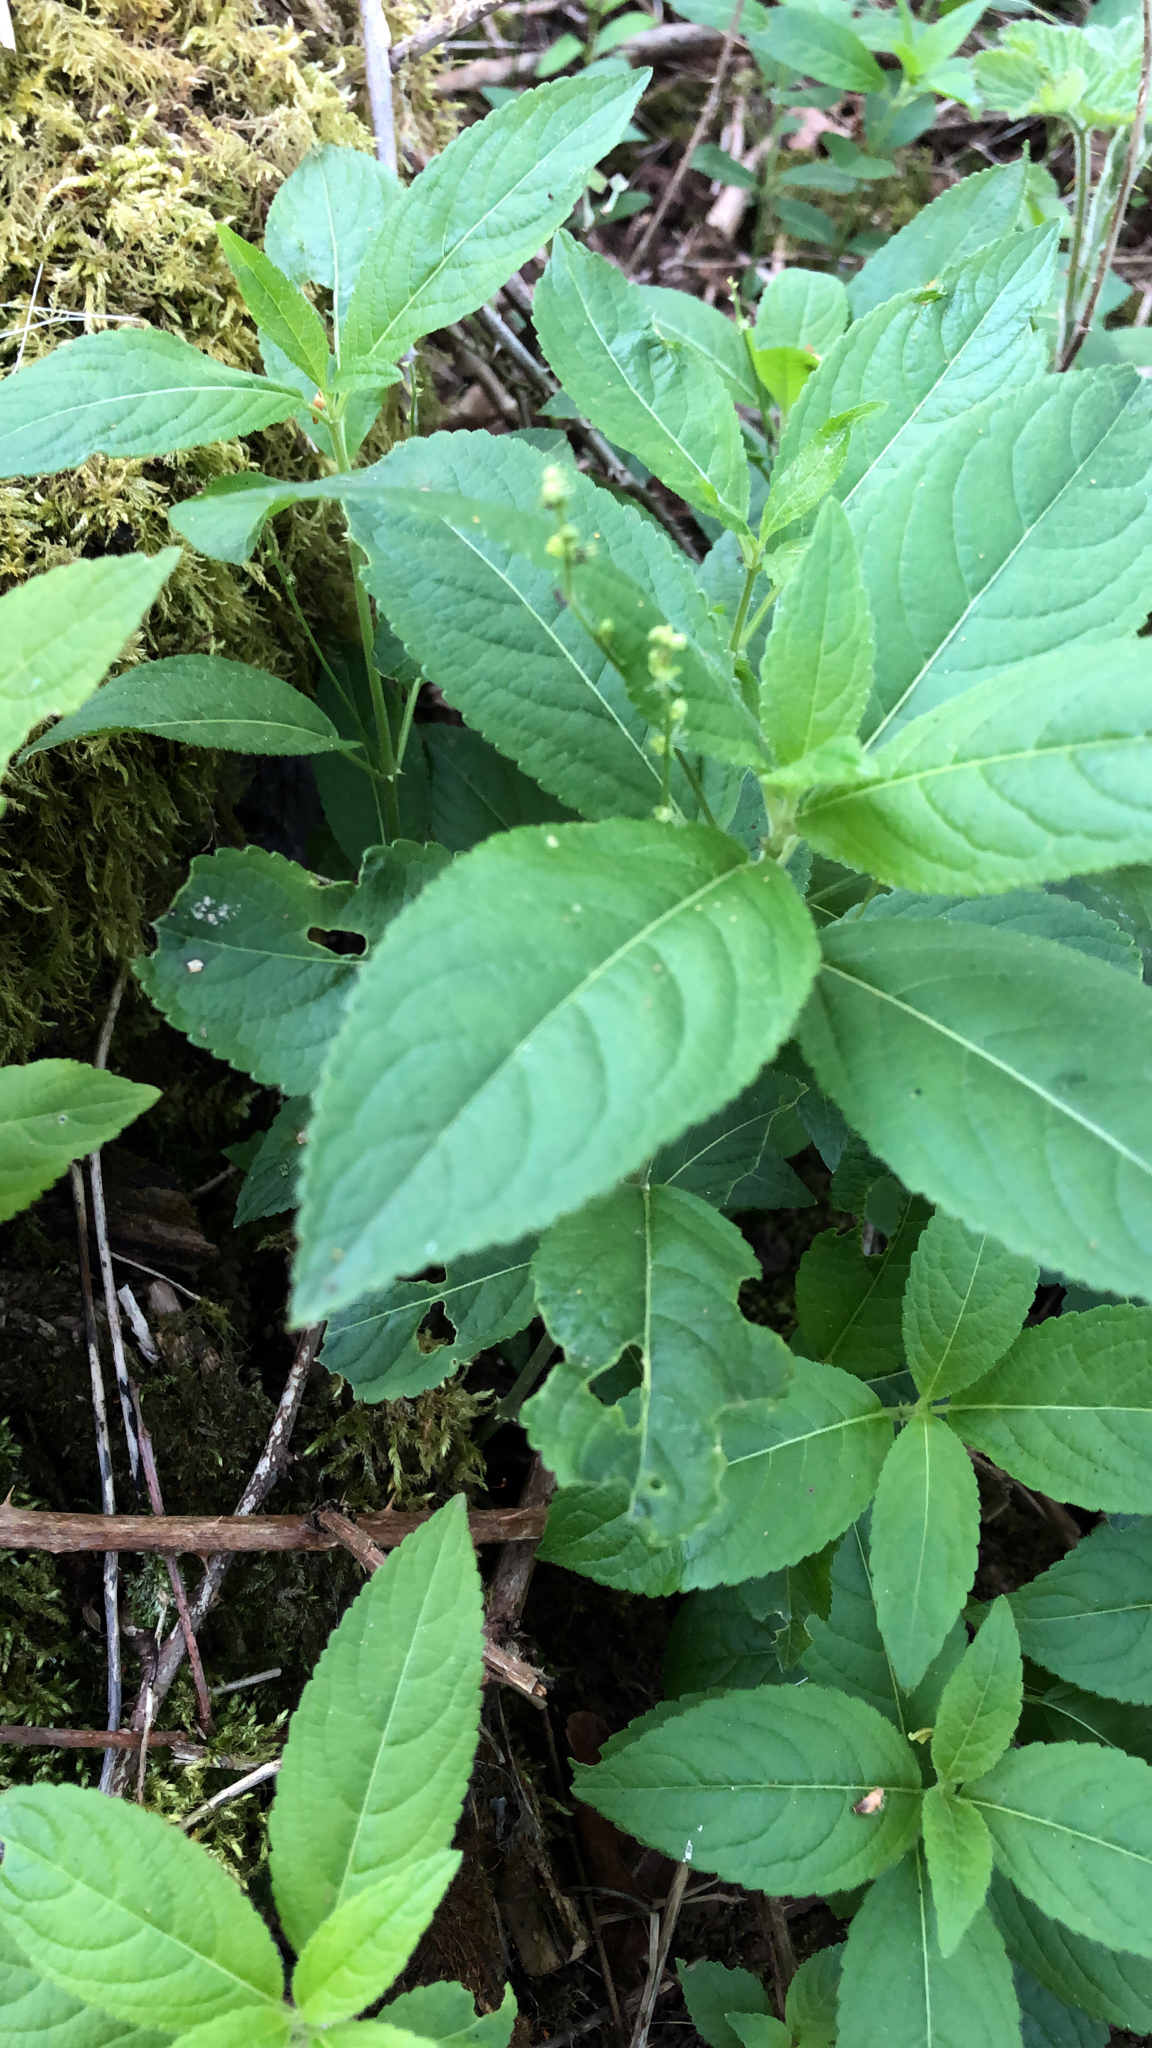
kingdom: Plantae
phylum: Tracheophyta
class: Magnoliopsida
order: Malpighiales
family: Euphorbiaceae
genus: Mercurialis
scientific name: Mercurialis perennis
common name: Dog mercury
